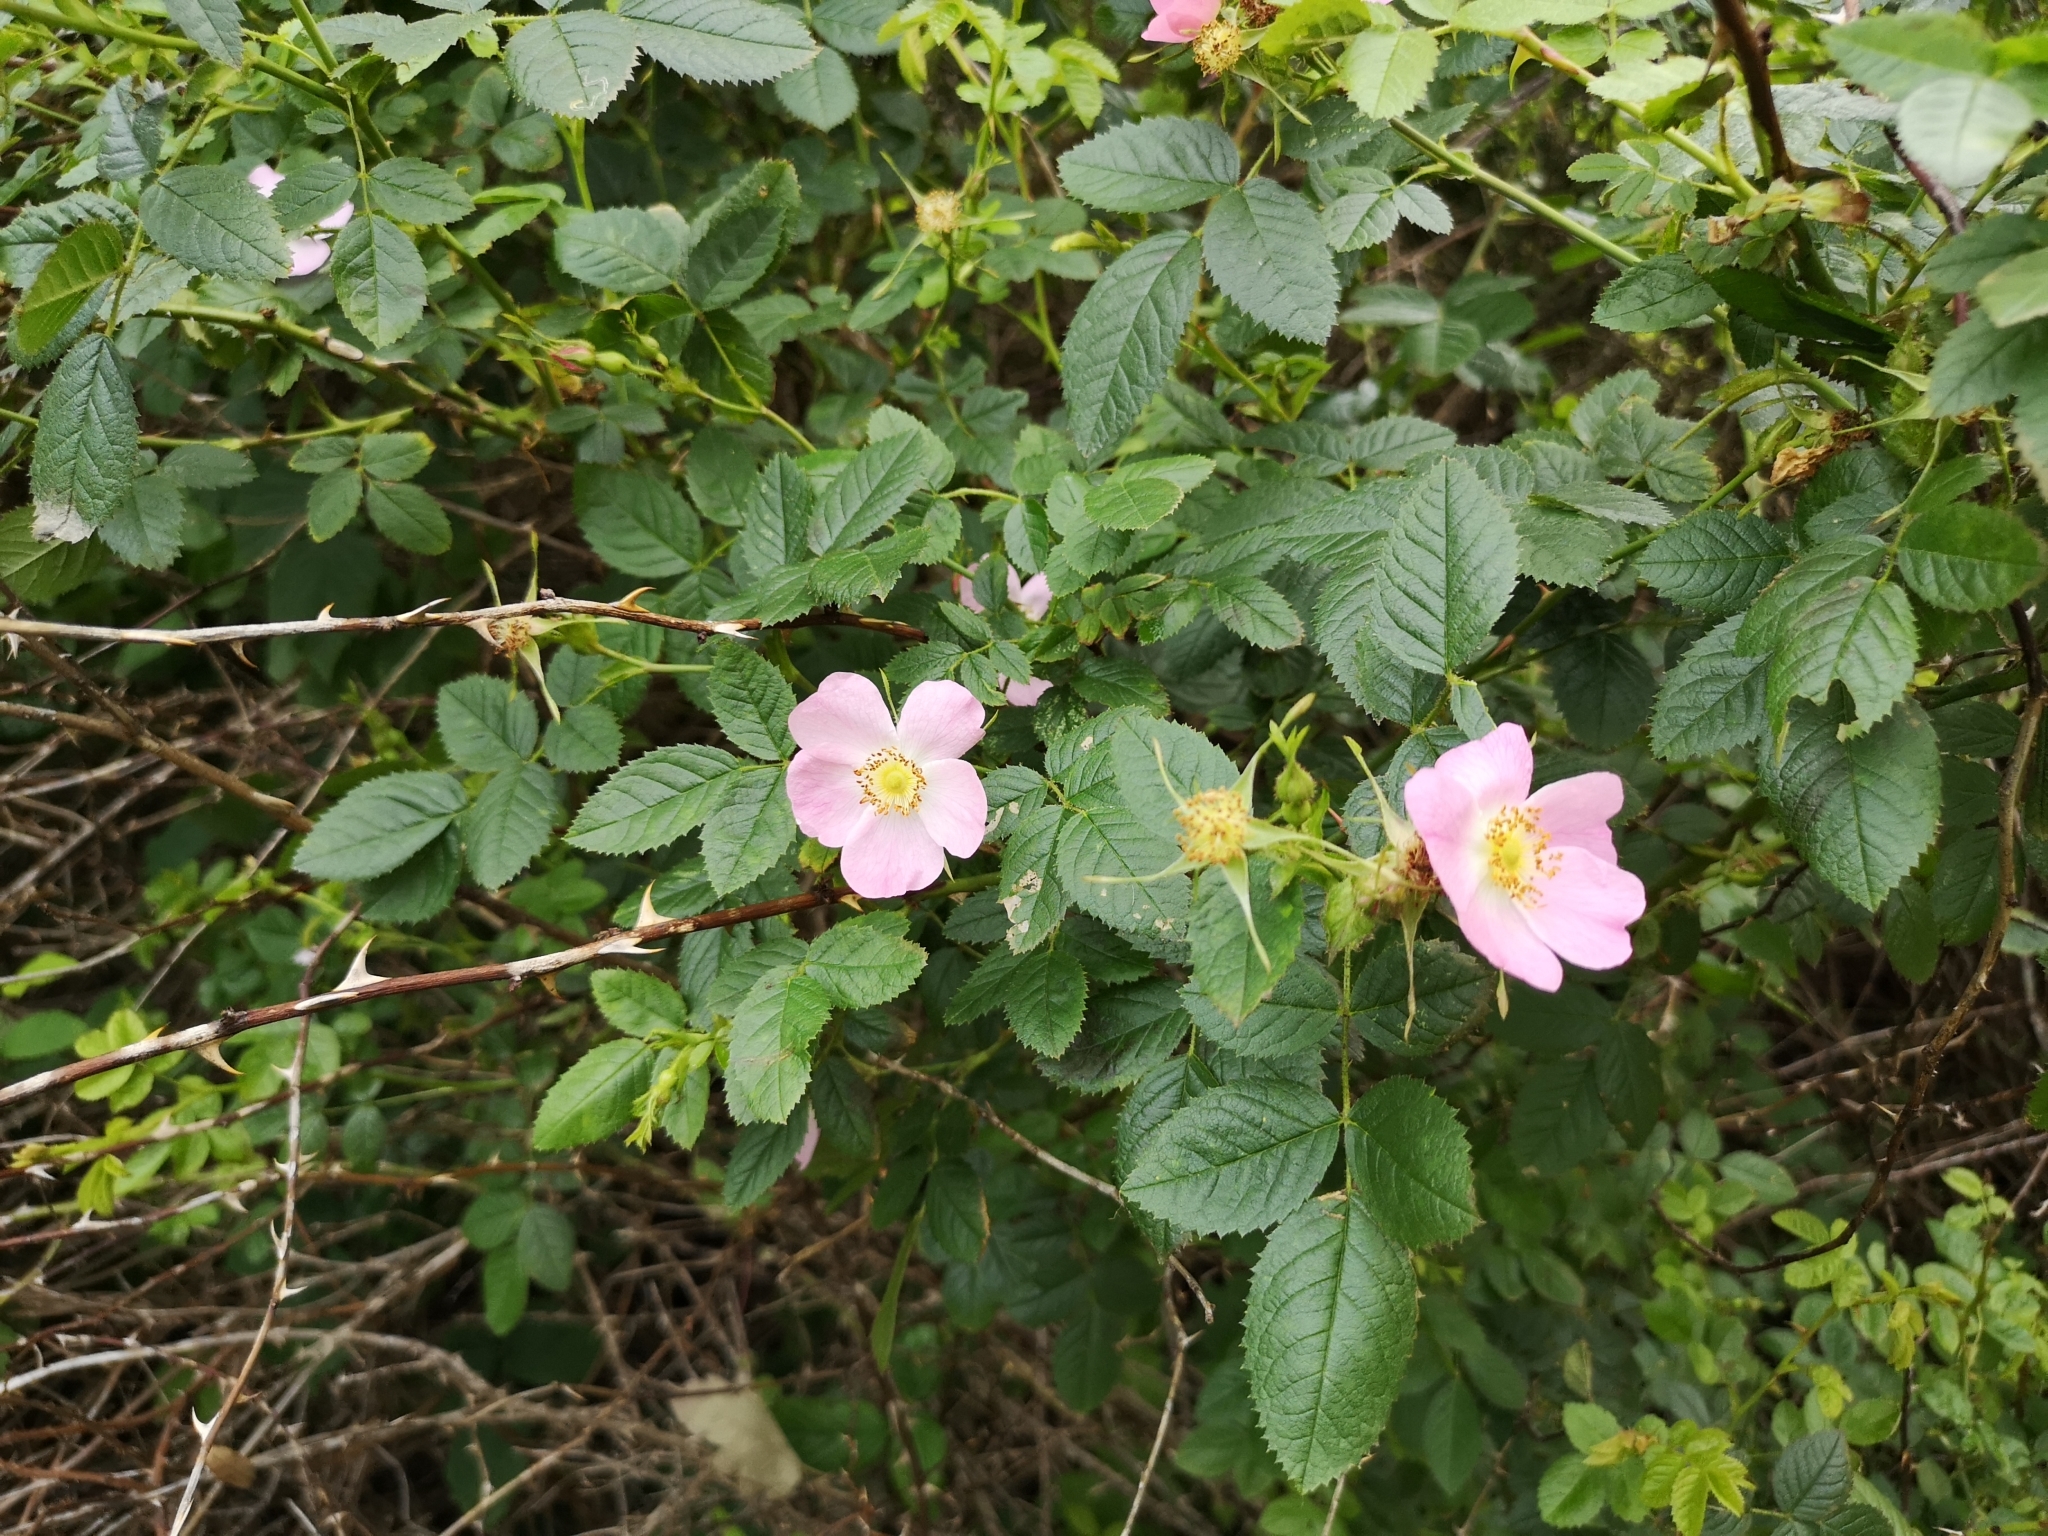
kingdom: Plantae
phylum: Tracheophyta
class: Magnoliopsida
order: Rosales
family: Rosaceae
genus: Rosa
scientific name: Rosa rubiginosa
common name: Sweet-briar
